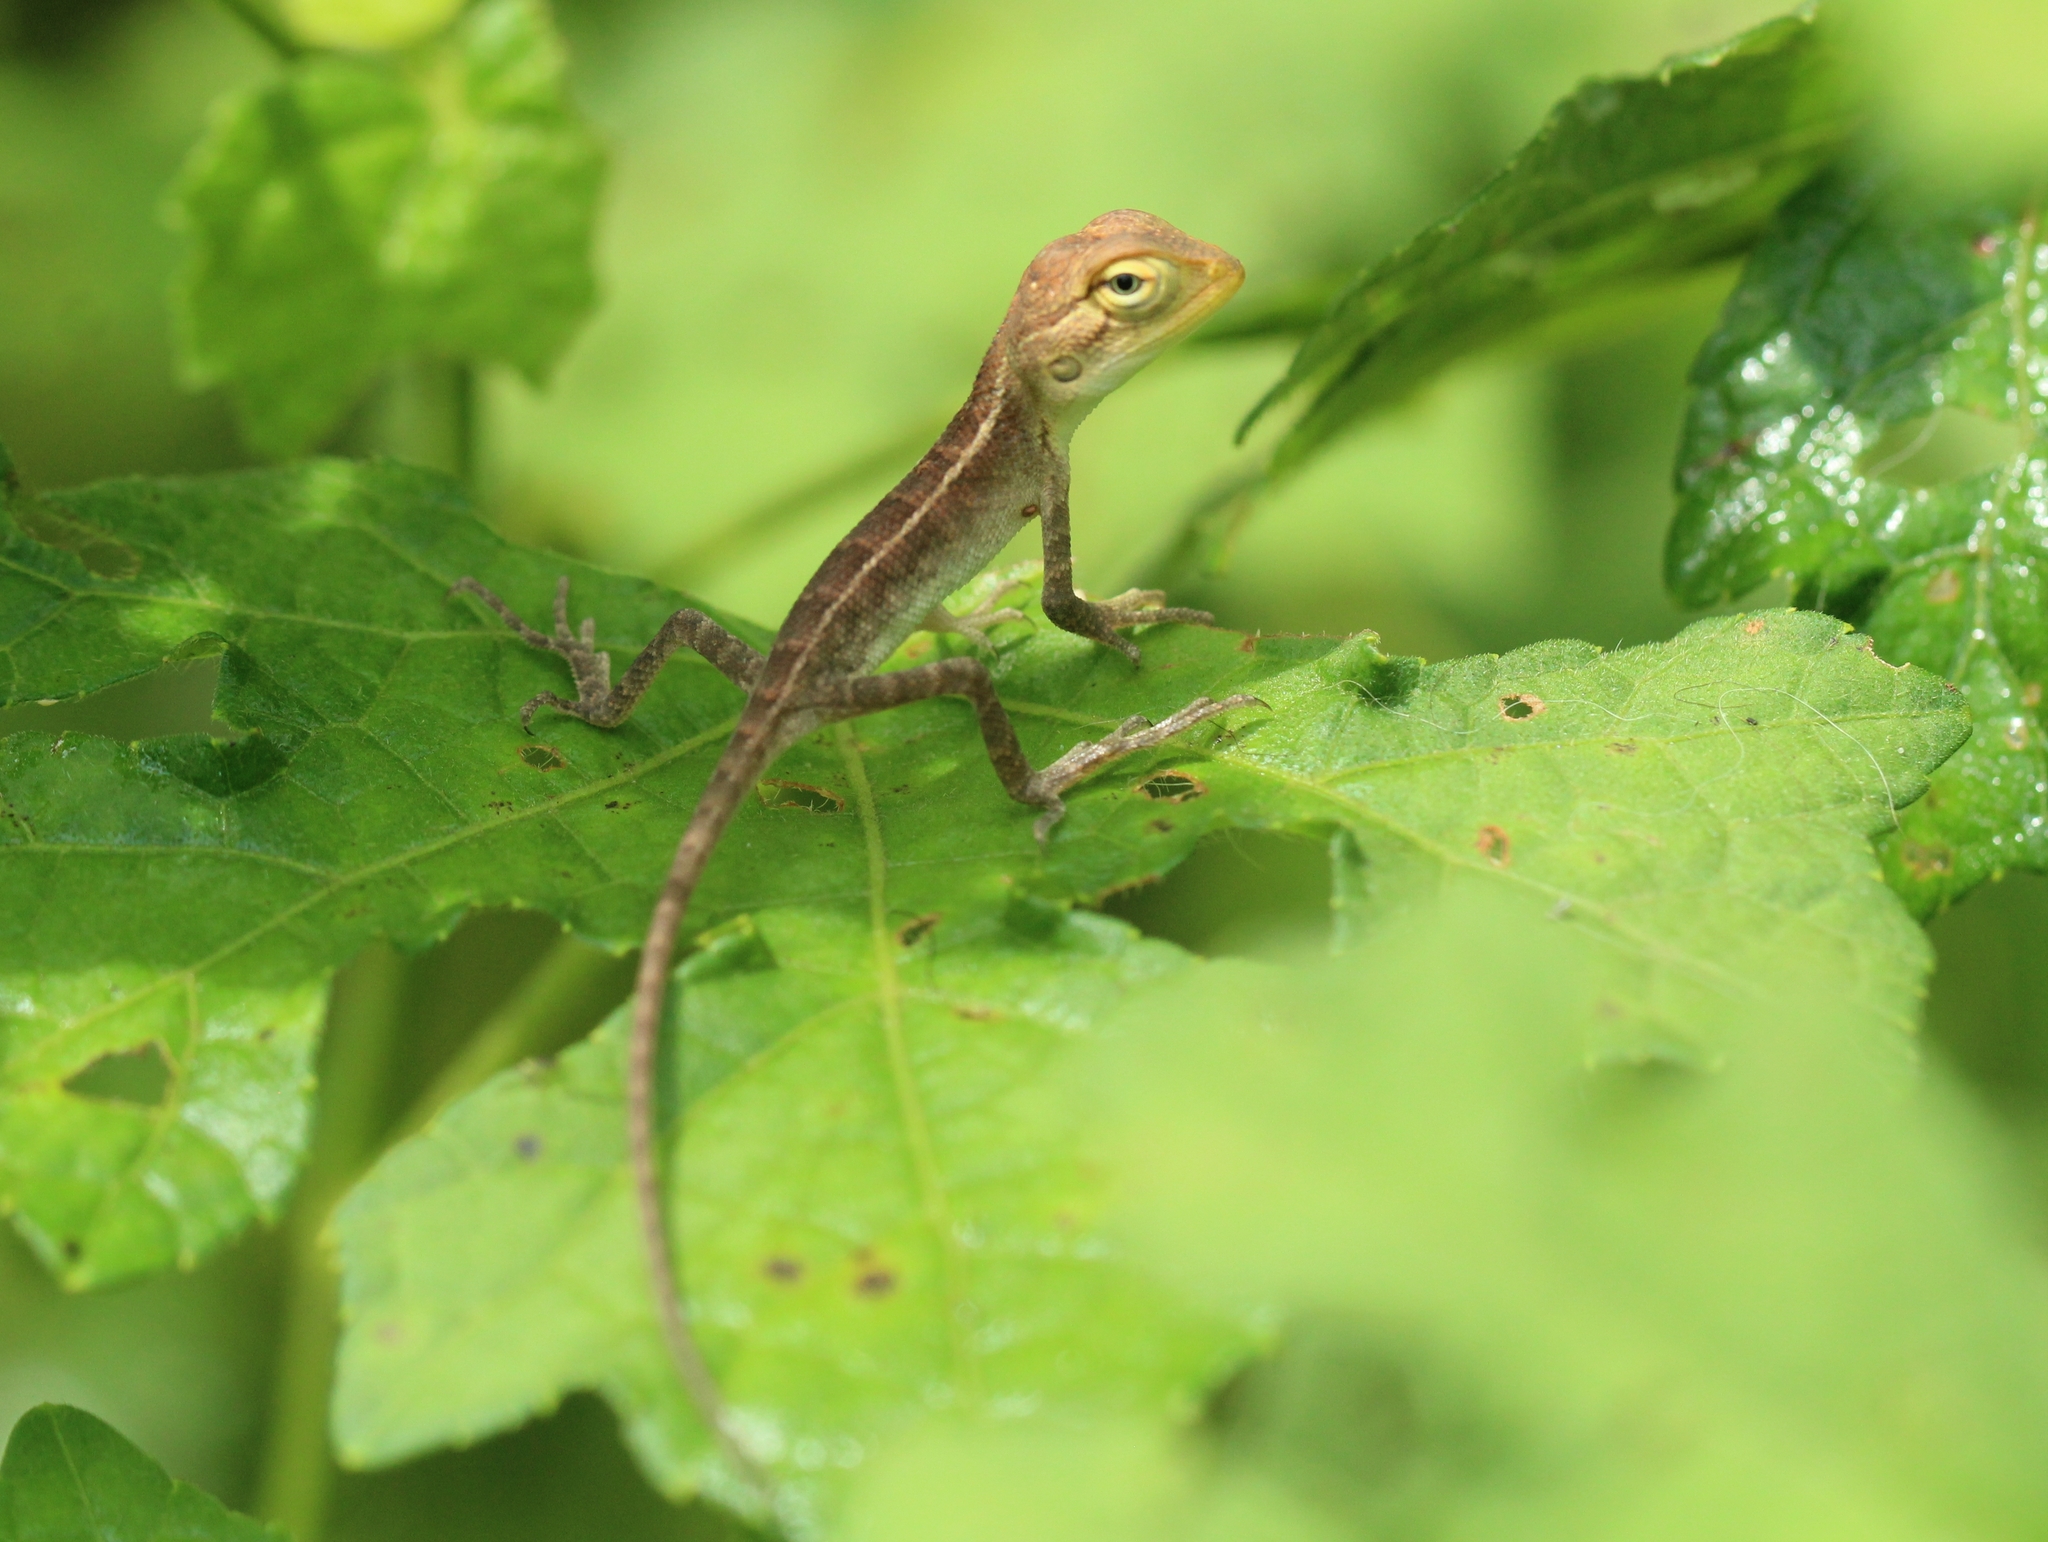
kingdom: Animalia
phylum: Chordata
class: Squamata
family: Agamidae
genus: Calotes
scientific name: Calotes versicolor
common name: Oriental garden lizard
